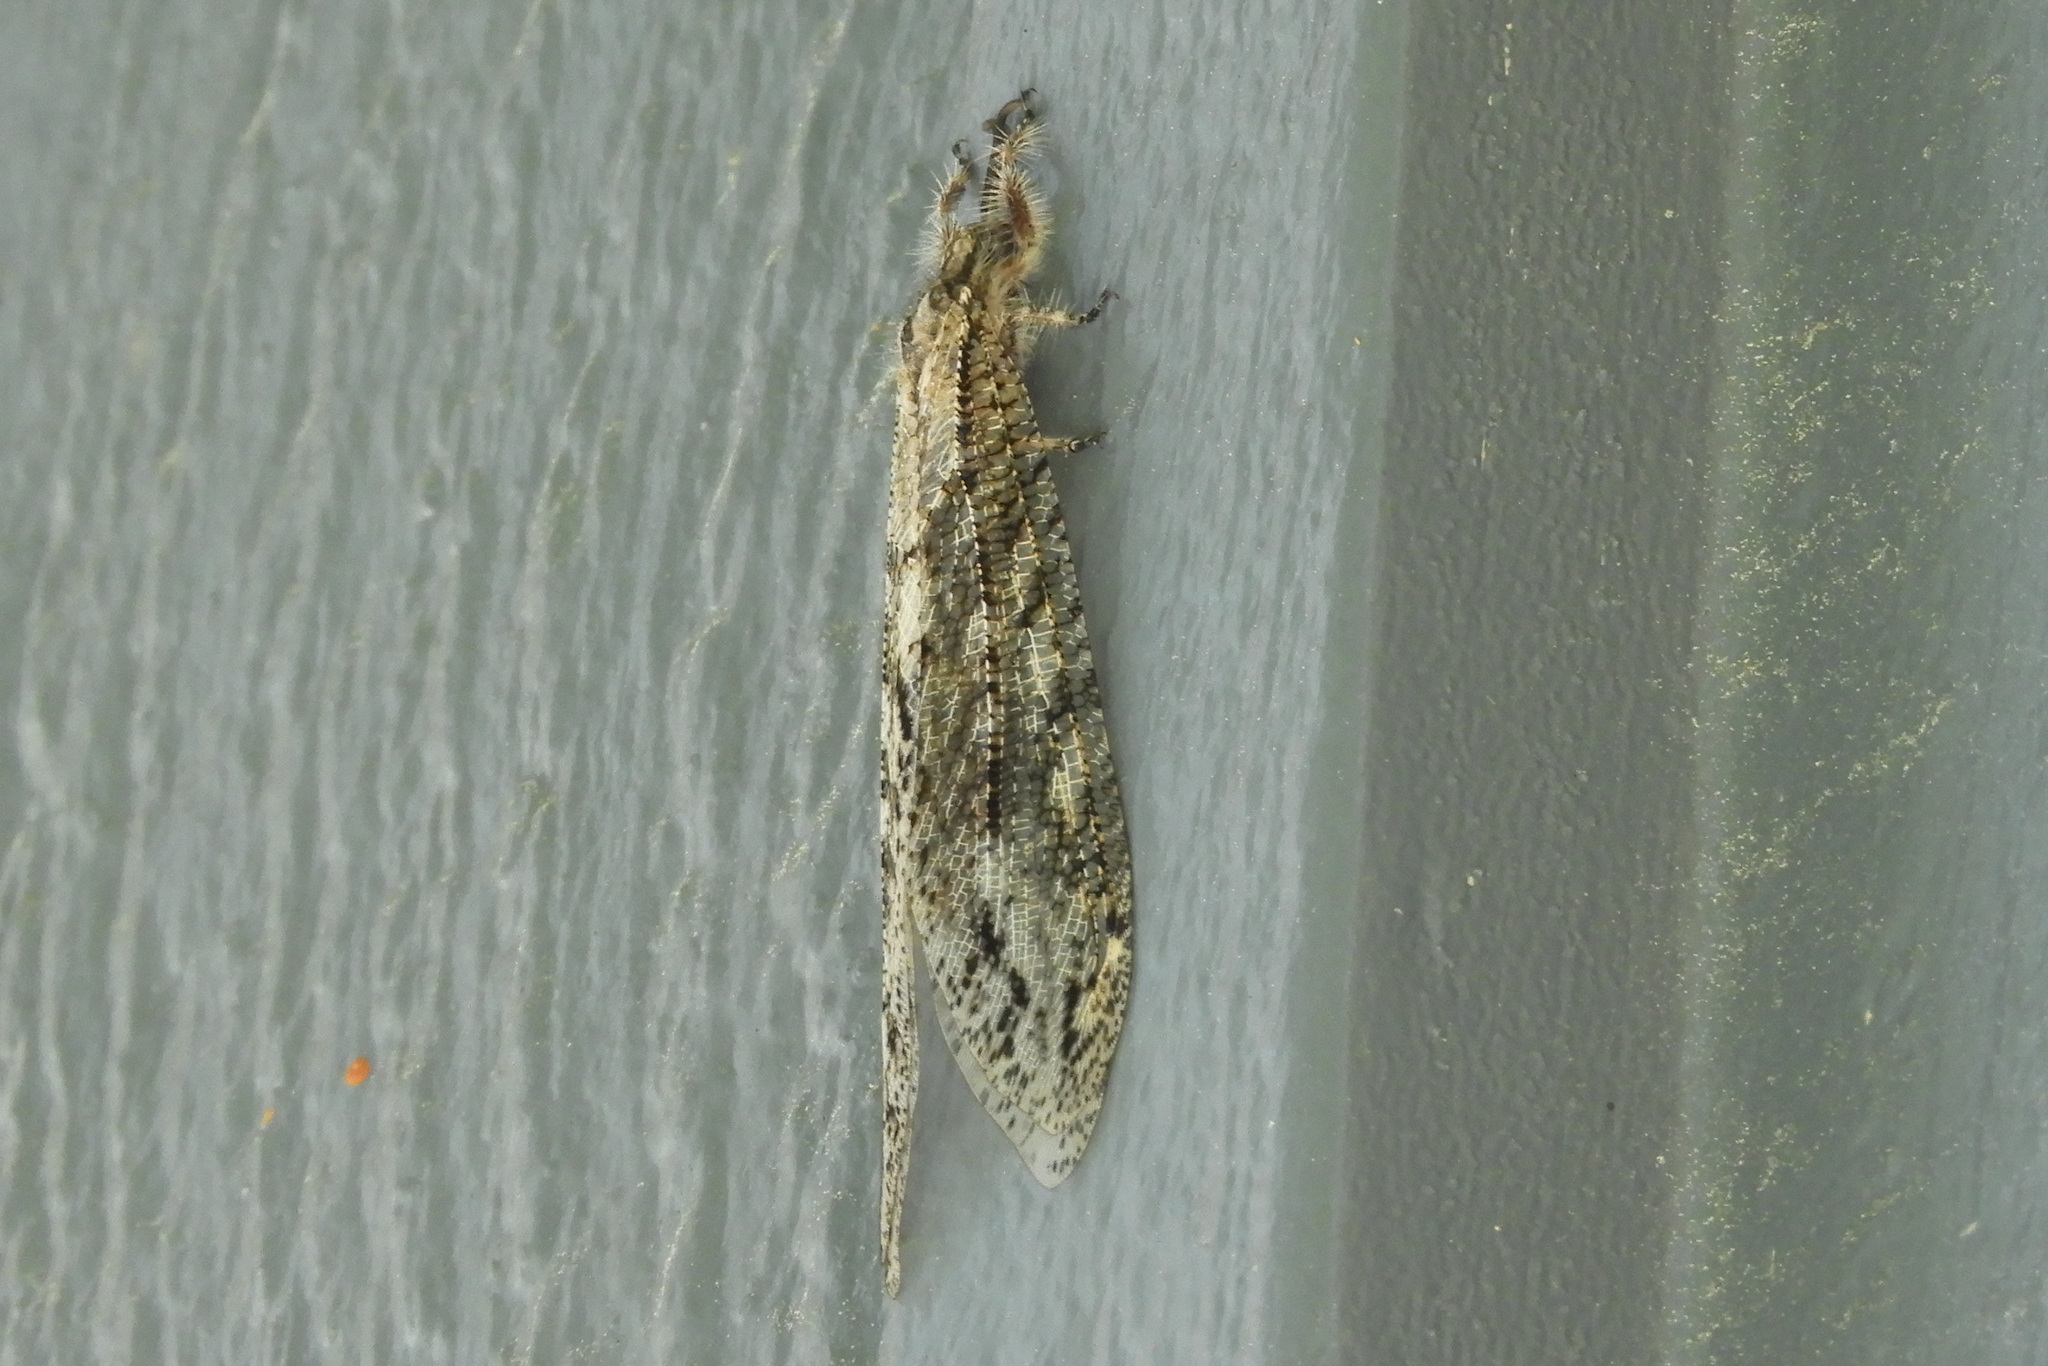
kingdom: Animalia
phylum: Arthropoda
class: Insecta
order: Neuroptera
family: Myrmeleontidae
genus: Vella
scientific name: Vella americana
